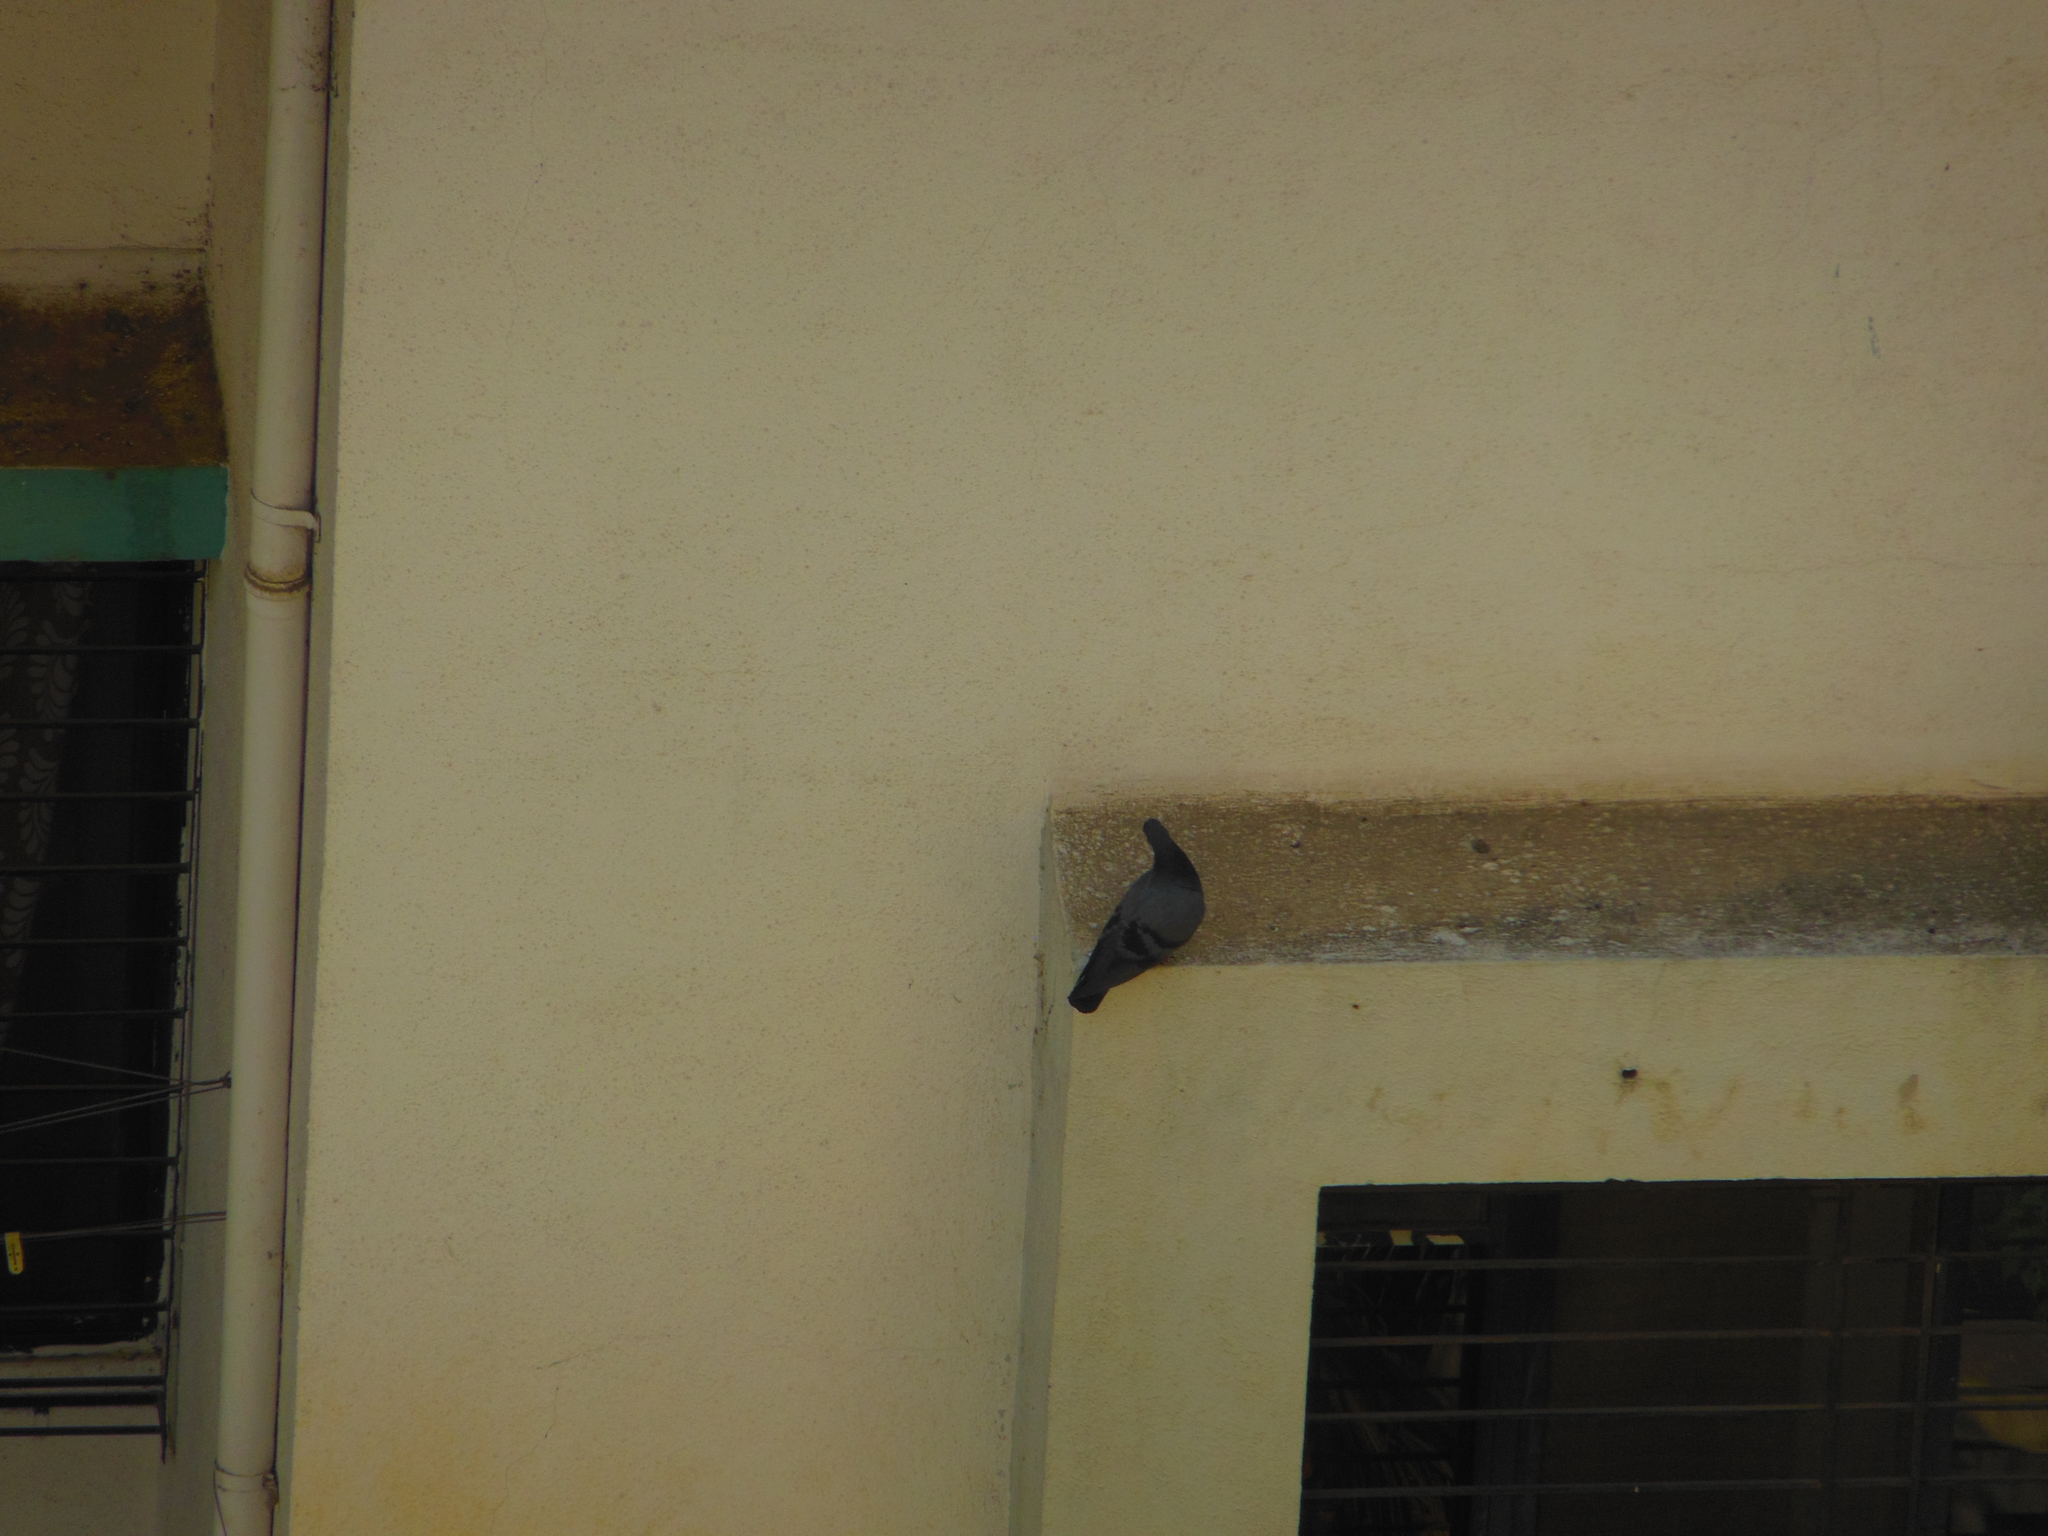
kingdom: Animalia
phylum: Chordata
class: Aves
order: Columbiformes
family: Columbidae
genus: Columba
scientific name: Columba livia
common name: Rock pigeon
